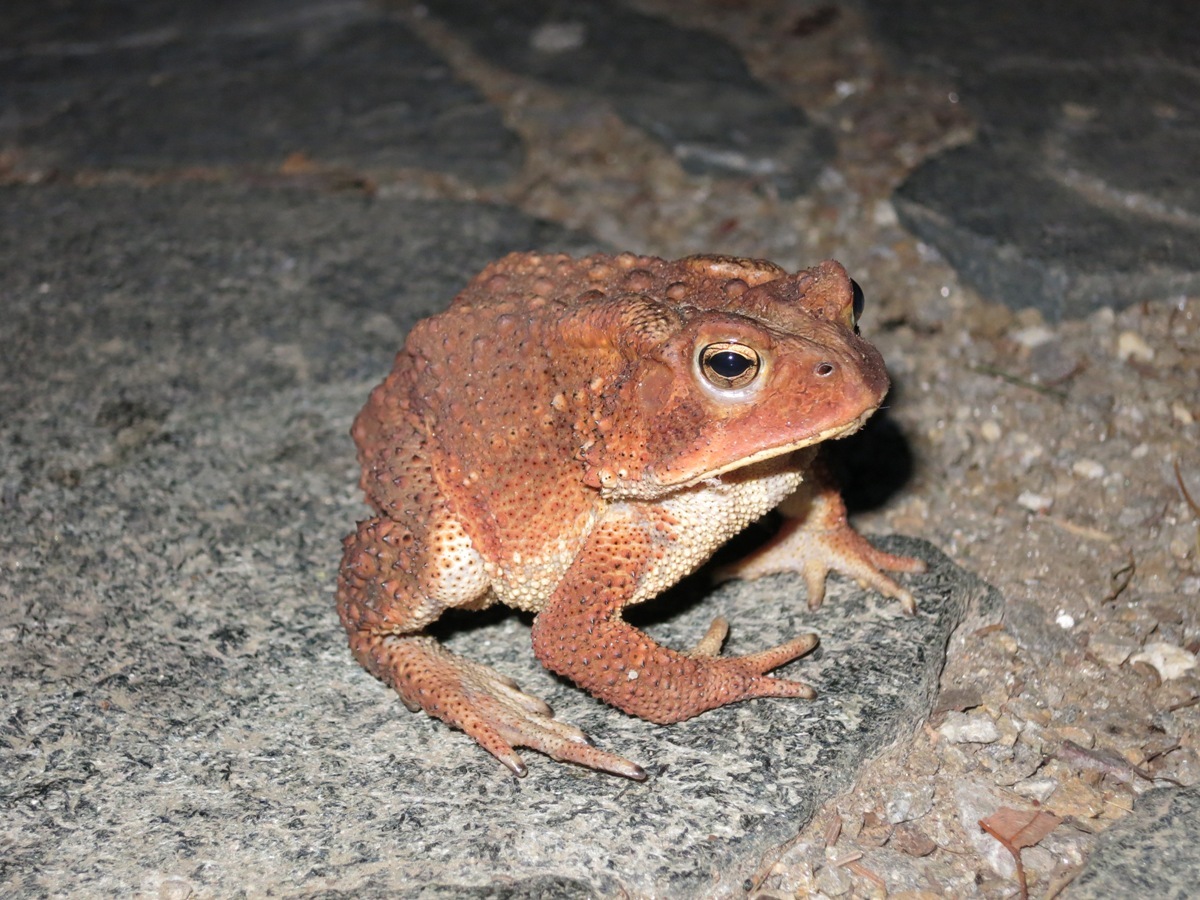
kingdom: Animalia
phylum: Chordata
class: Amphibia
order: Anura
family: Bufonidae
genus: Anaxyrus
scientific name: Anaxyrus americanus
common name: American toad
